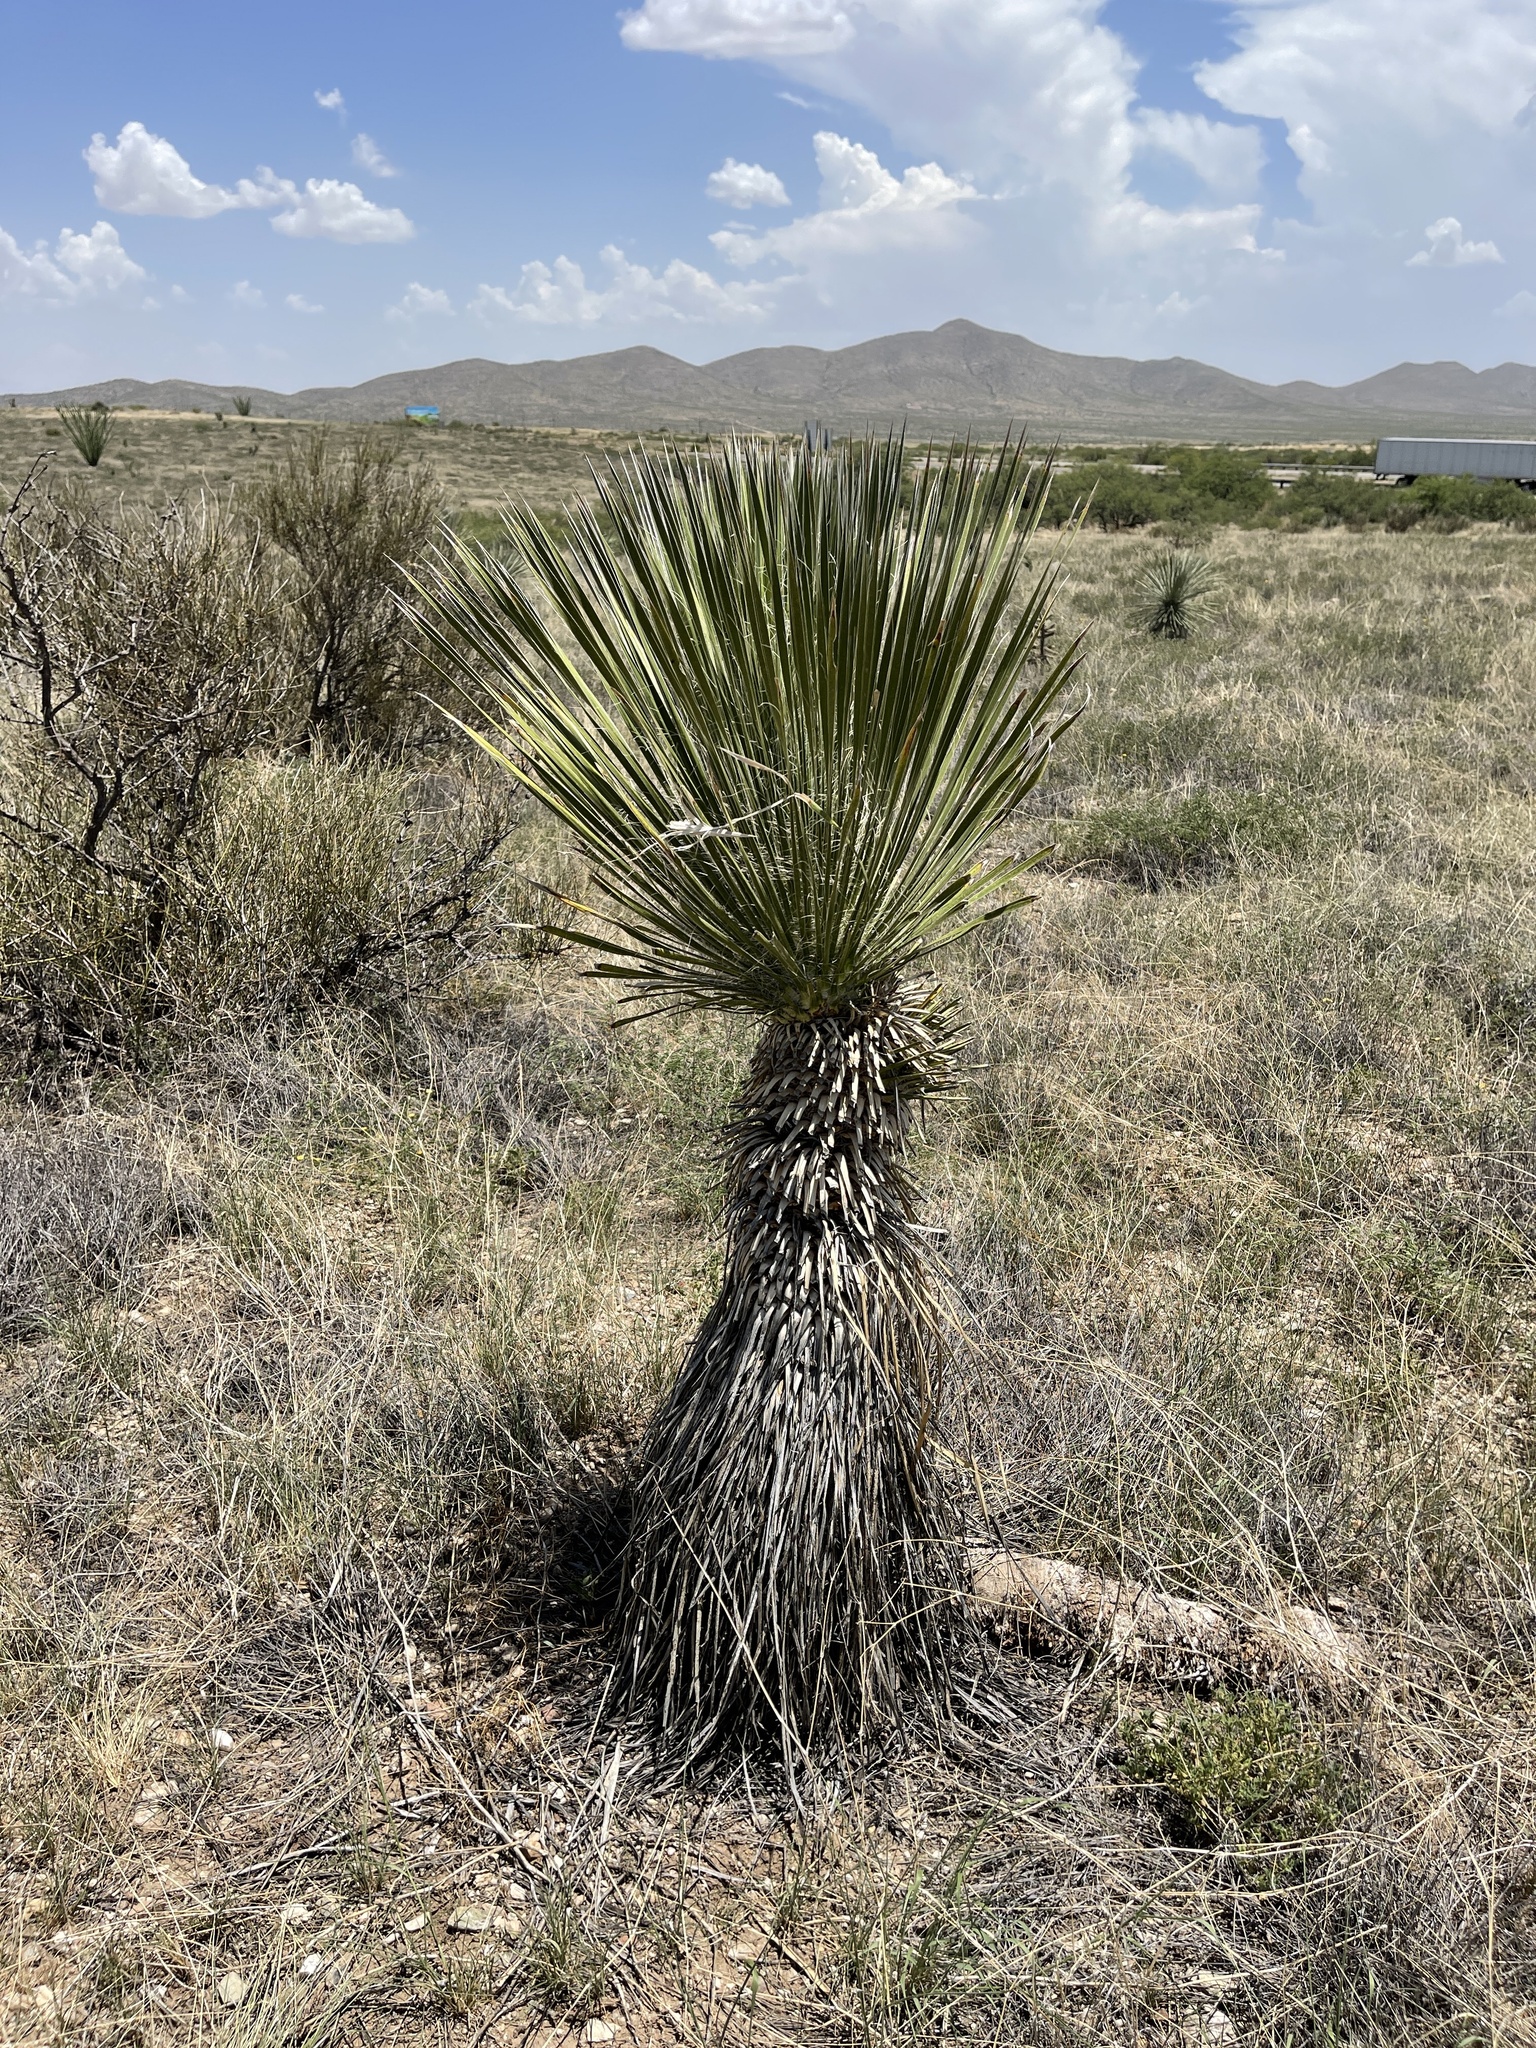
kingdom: Plantae
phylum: Tracheophyta
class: Liliopsida
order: Asparagales
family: Asparagaceae
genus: Yucca
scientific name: Yucca elata
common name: Palmella
